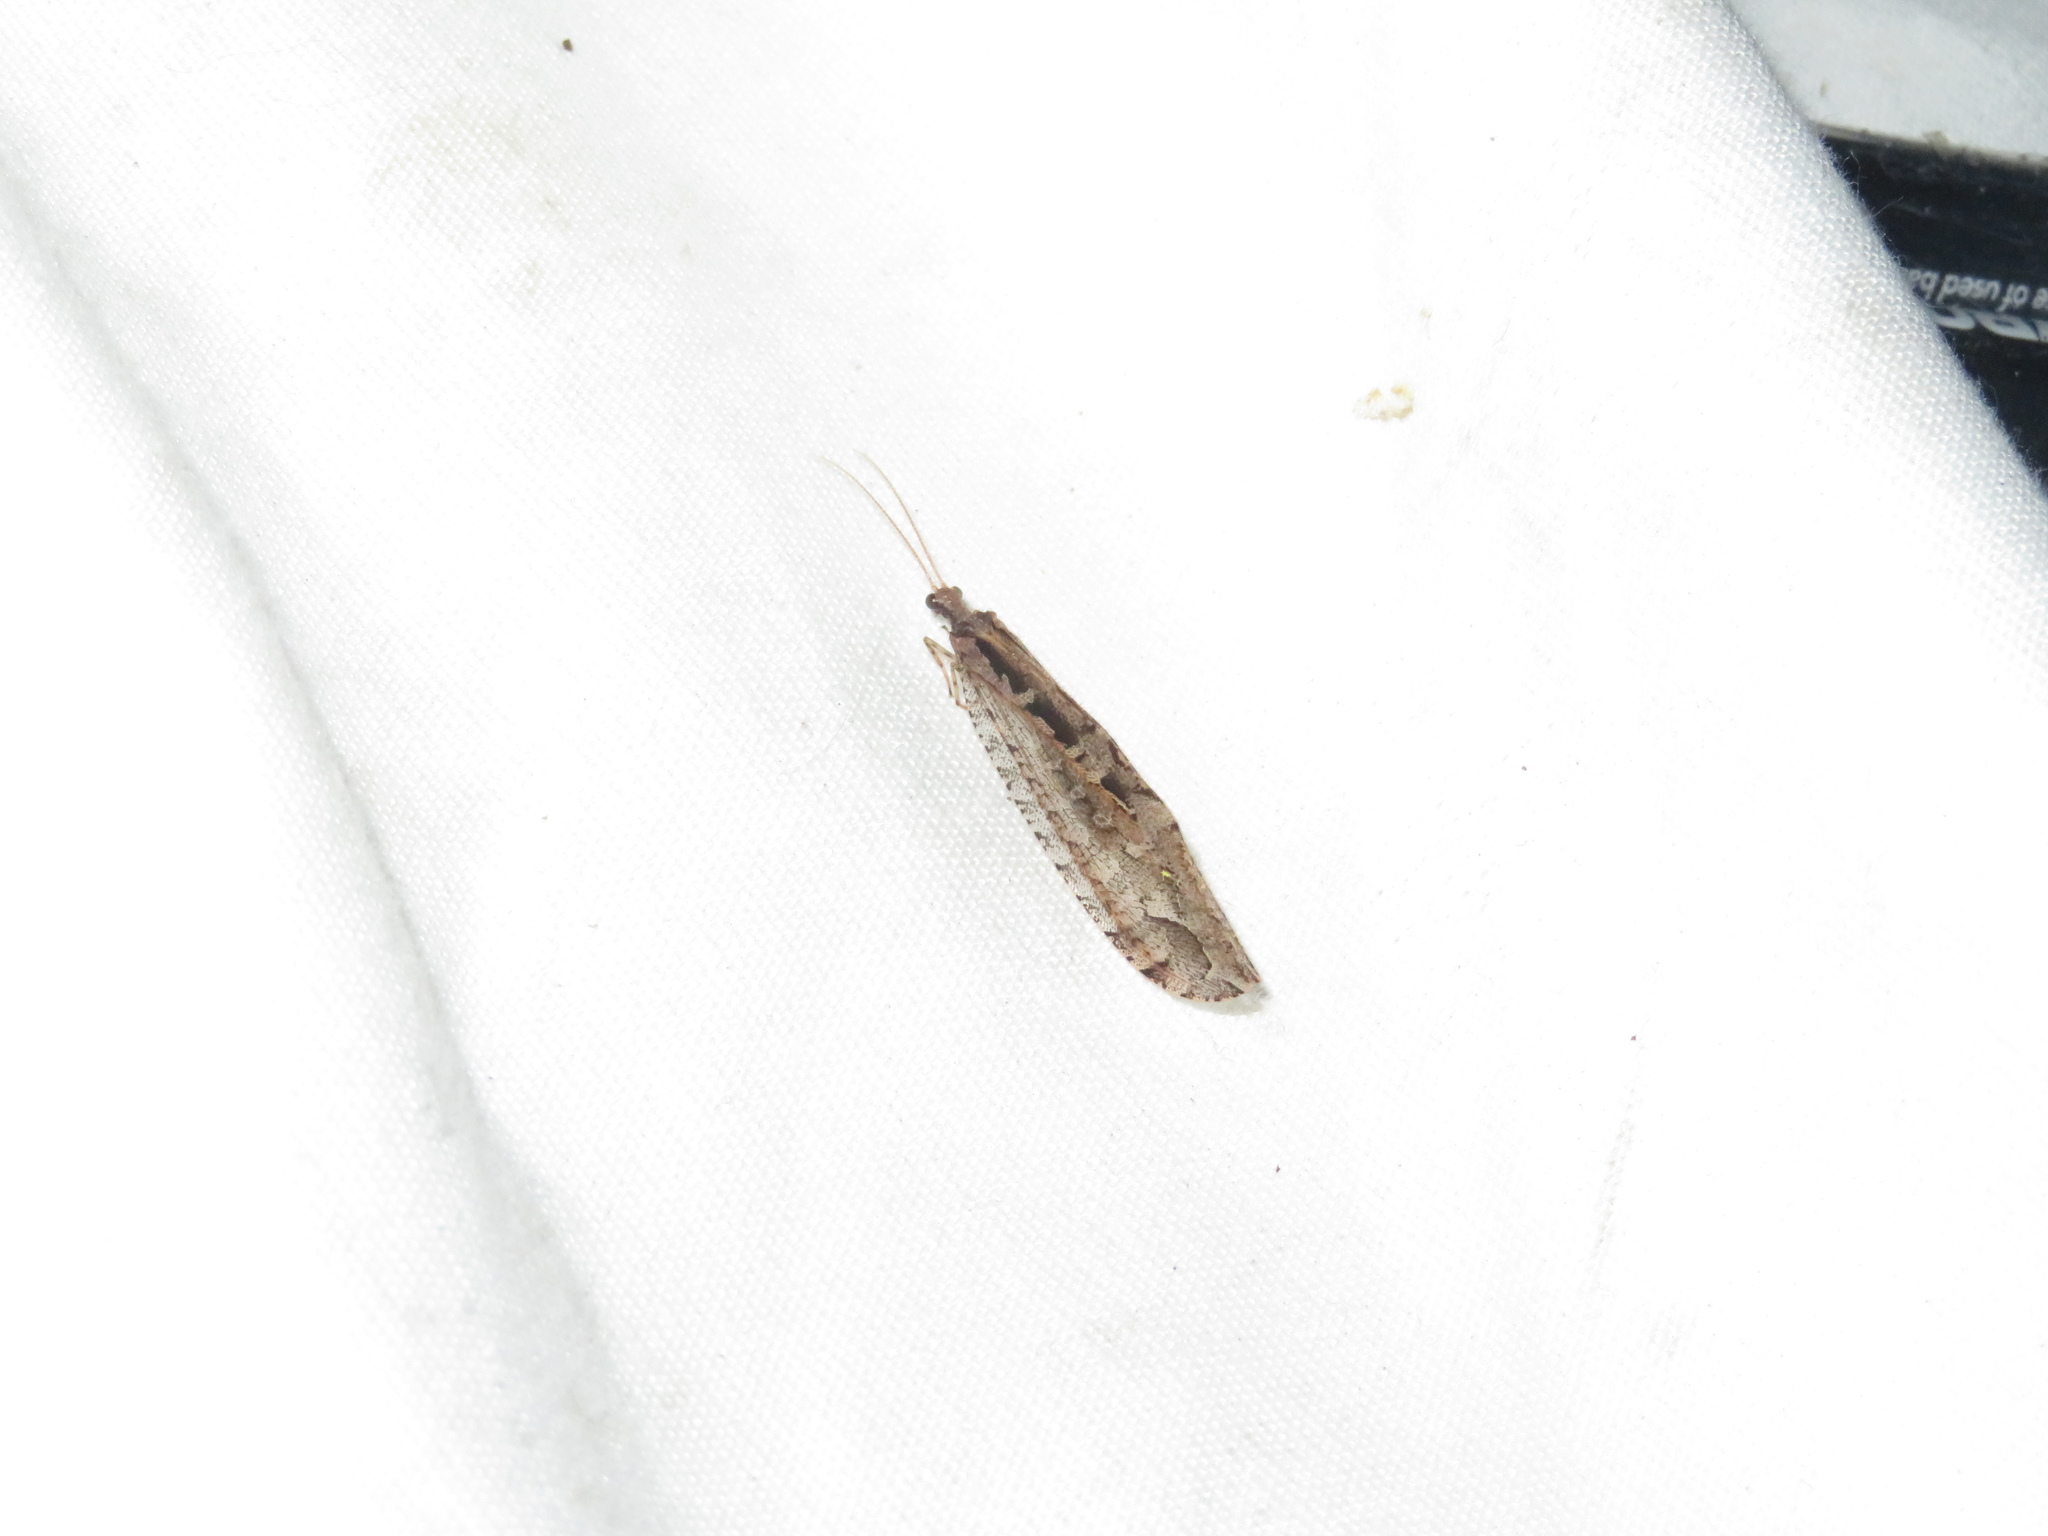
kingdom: Animalia
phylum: Arthropoda
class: Insecta
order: Neuroptera
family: Osmylidae
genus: Kempynus
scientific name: Kempynus incisus
